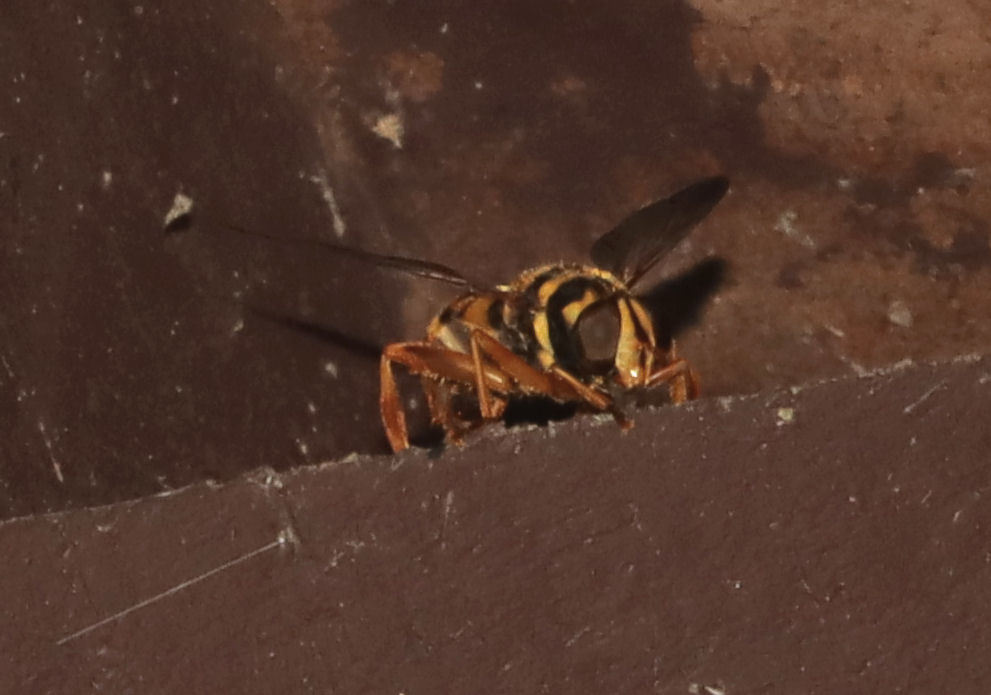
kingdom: Animalia
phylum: Arthropoda
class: Insecta
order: Diptera
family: Syrphidae
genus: Milesia
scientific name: Milesia virginiensis
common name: Virginia giant
